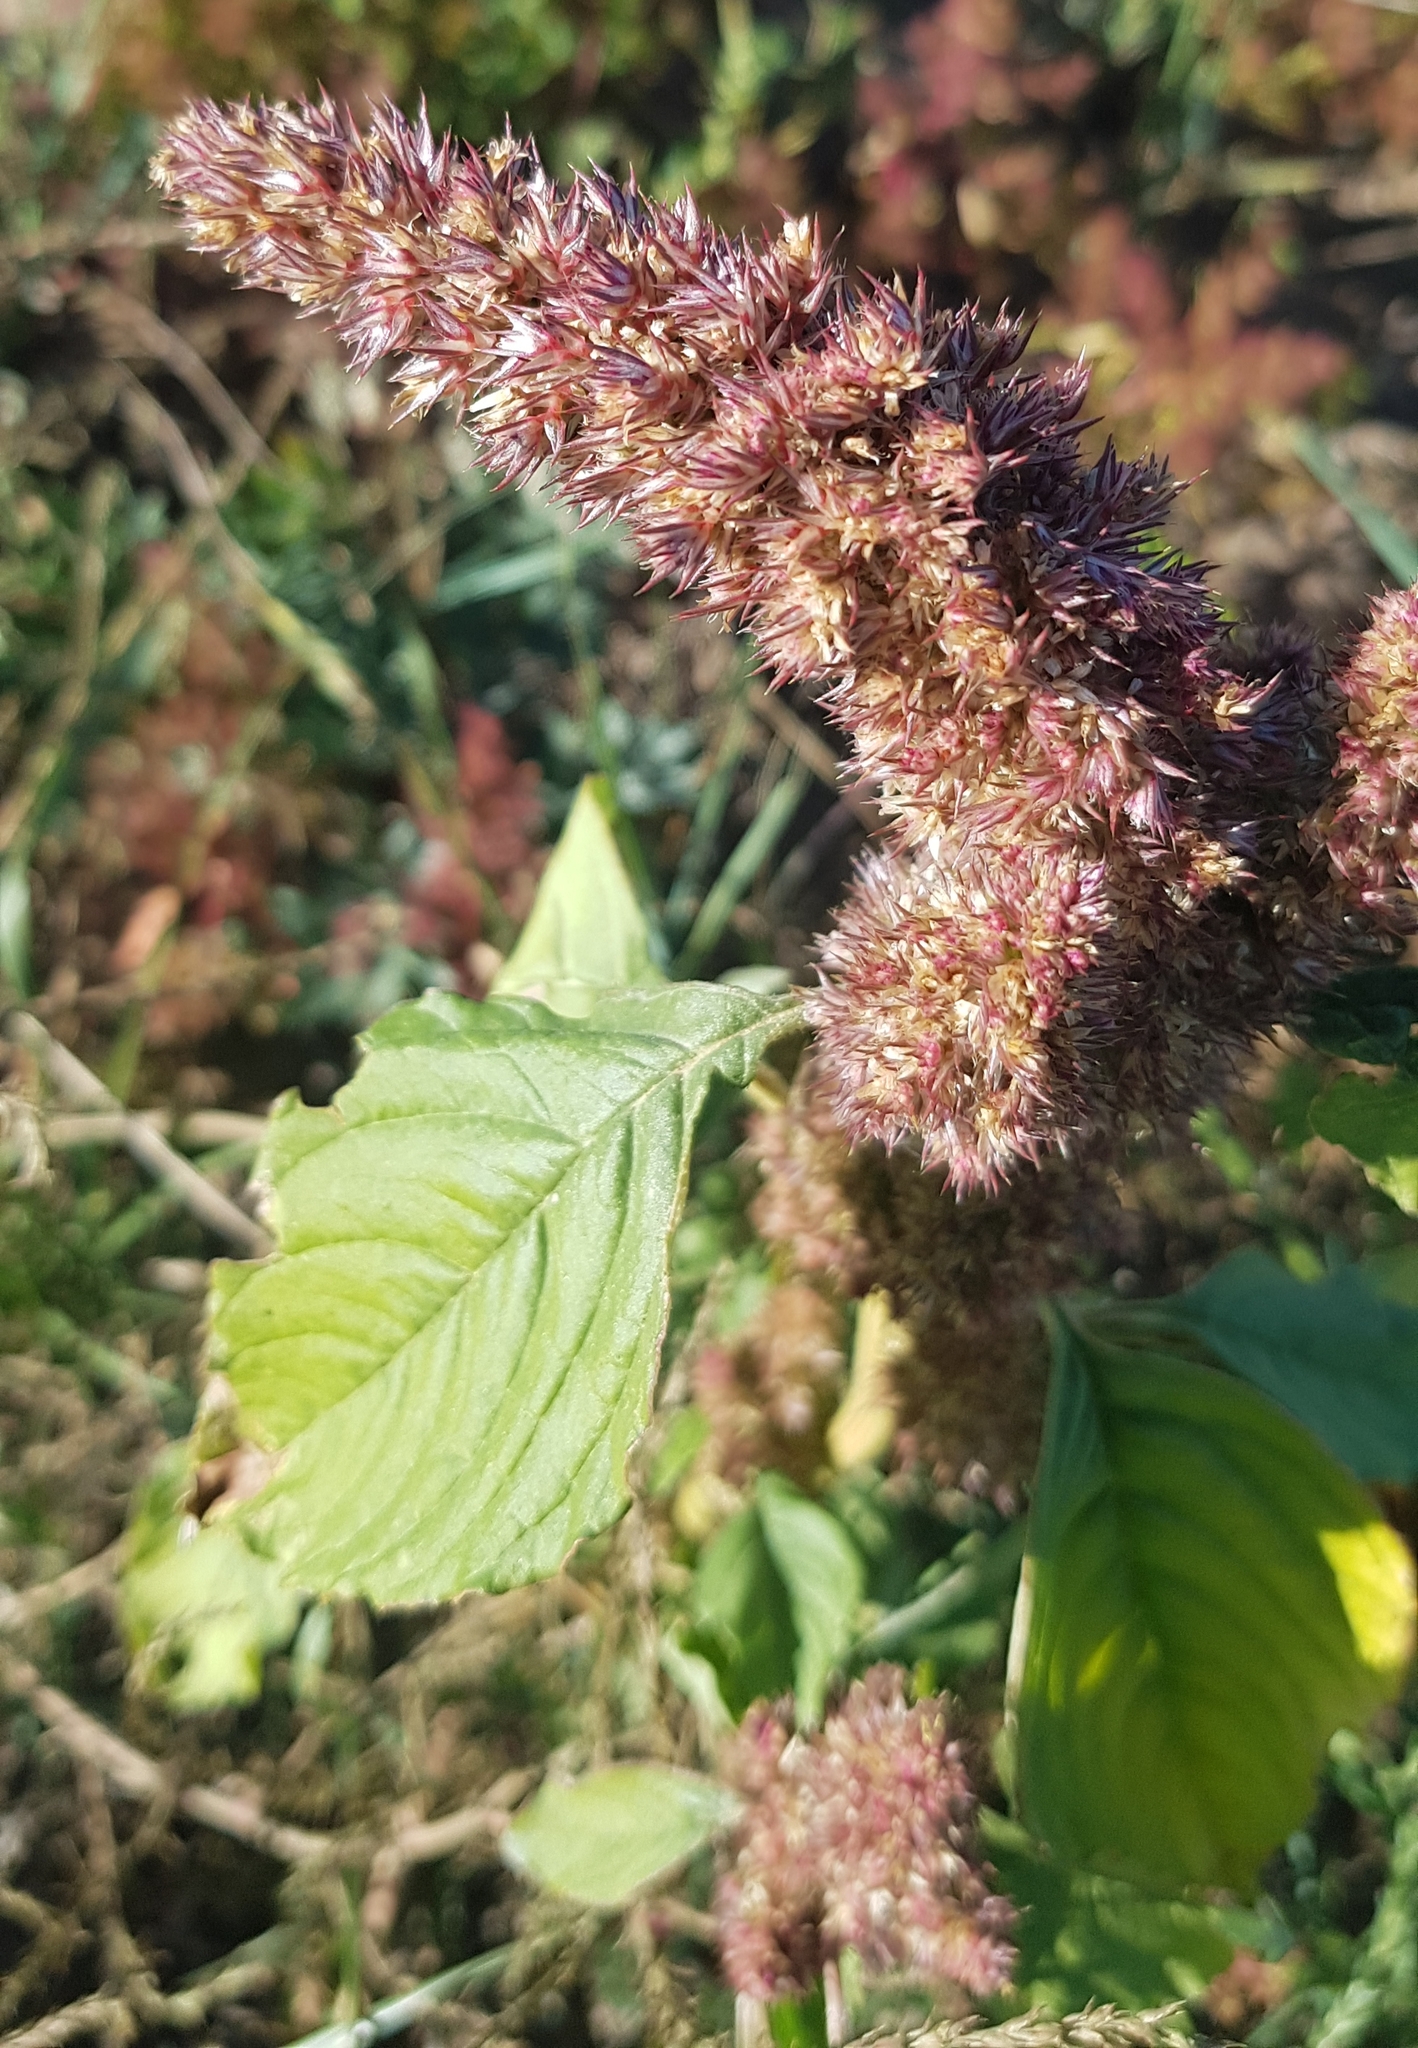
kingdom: Plantae
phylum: Tracheophyta
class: Magnoliopsida
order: Caryophyllales
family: Amaranthaceae
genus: Amaranthus
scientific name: Amaranthus cruentus
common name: Purple amaranth
